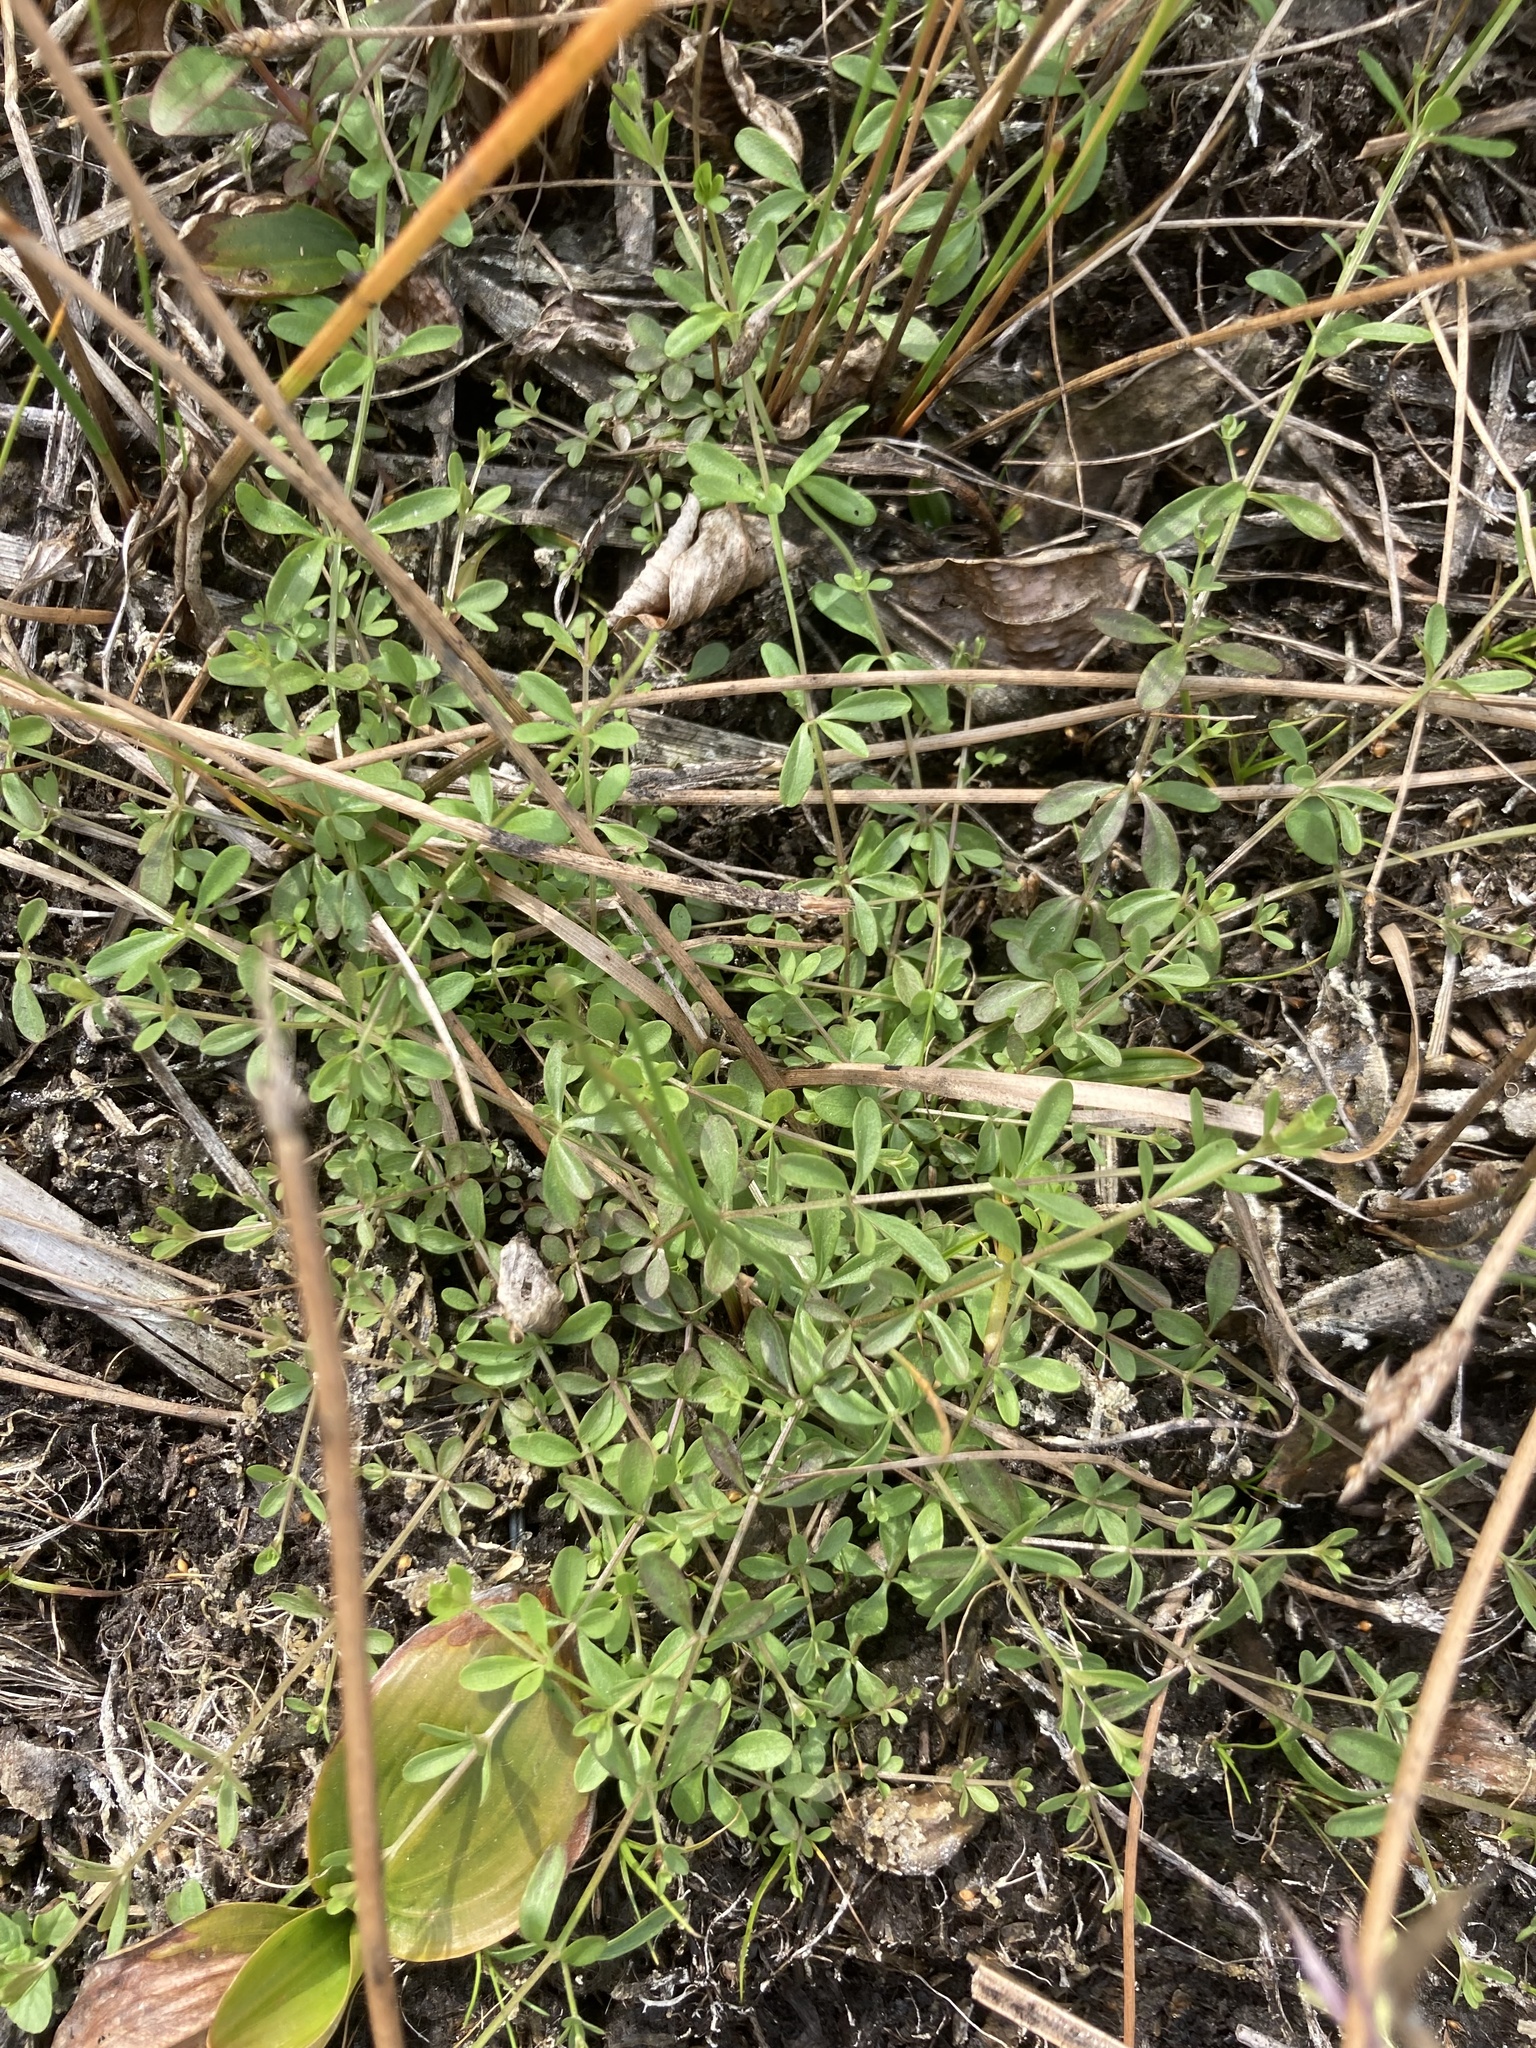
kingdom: Plantae
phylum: Tracheophyta
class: Magnoliopsida
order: Gentianales
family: Rubiaceae
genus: Galium
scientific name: Galium trifidum
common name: Small bedstraw
